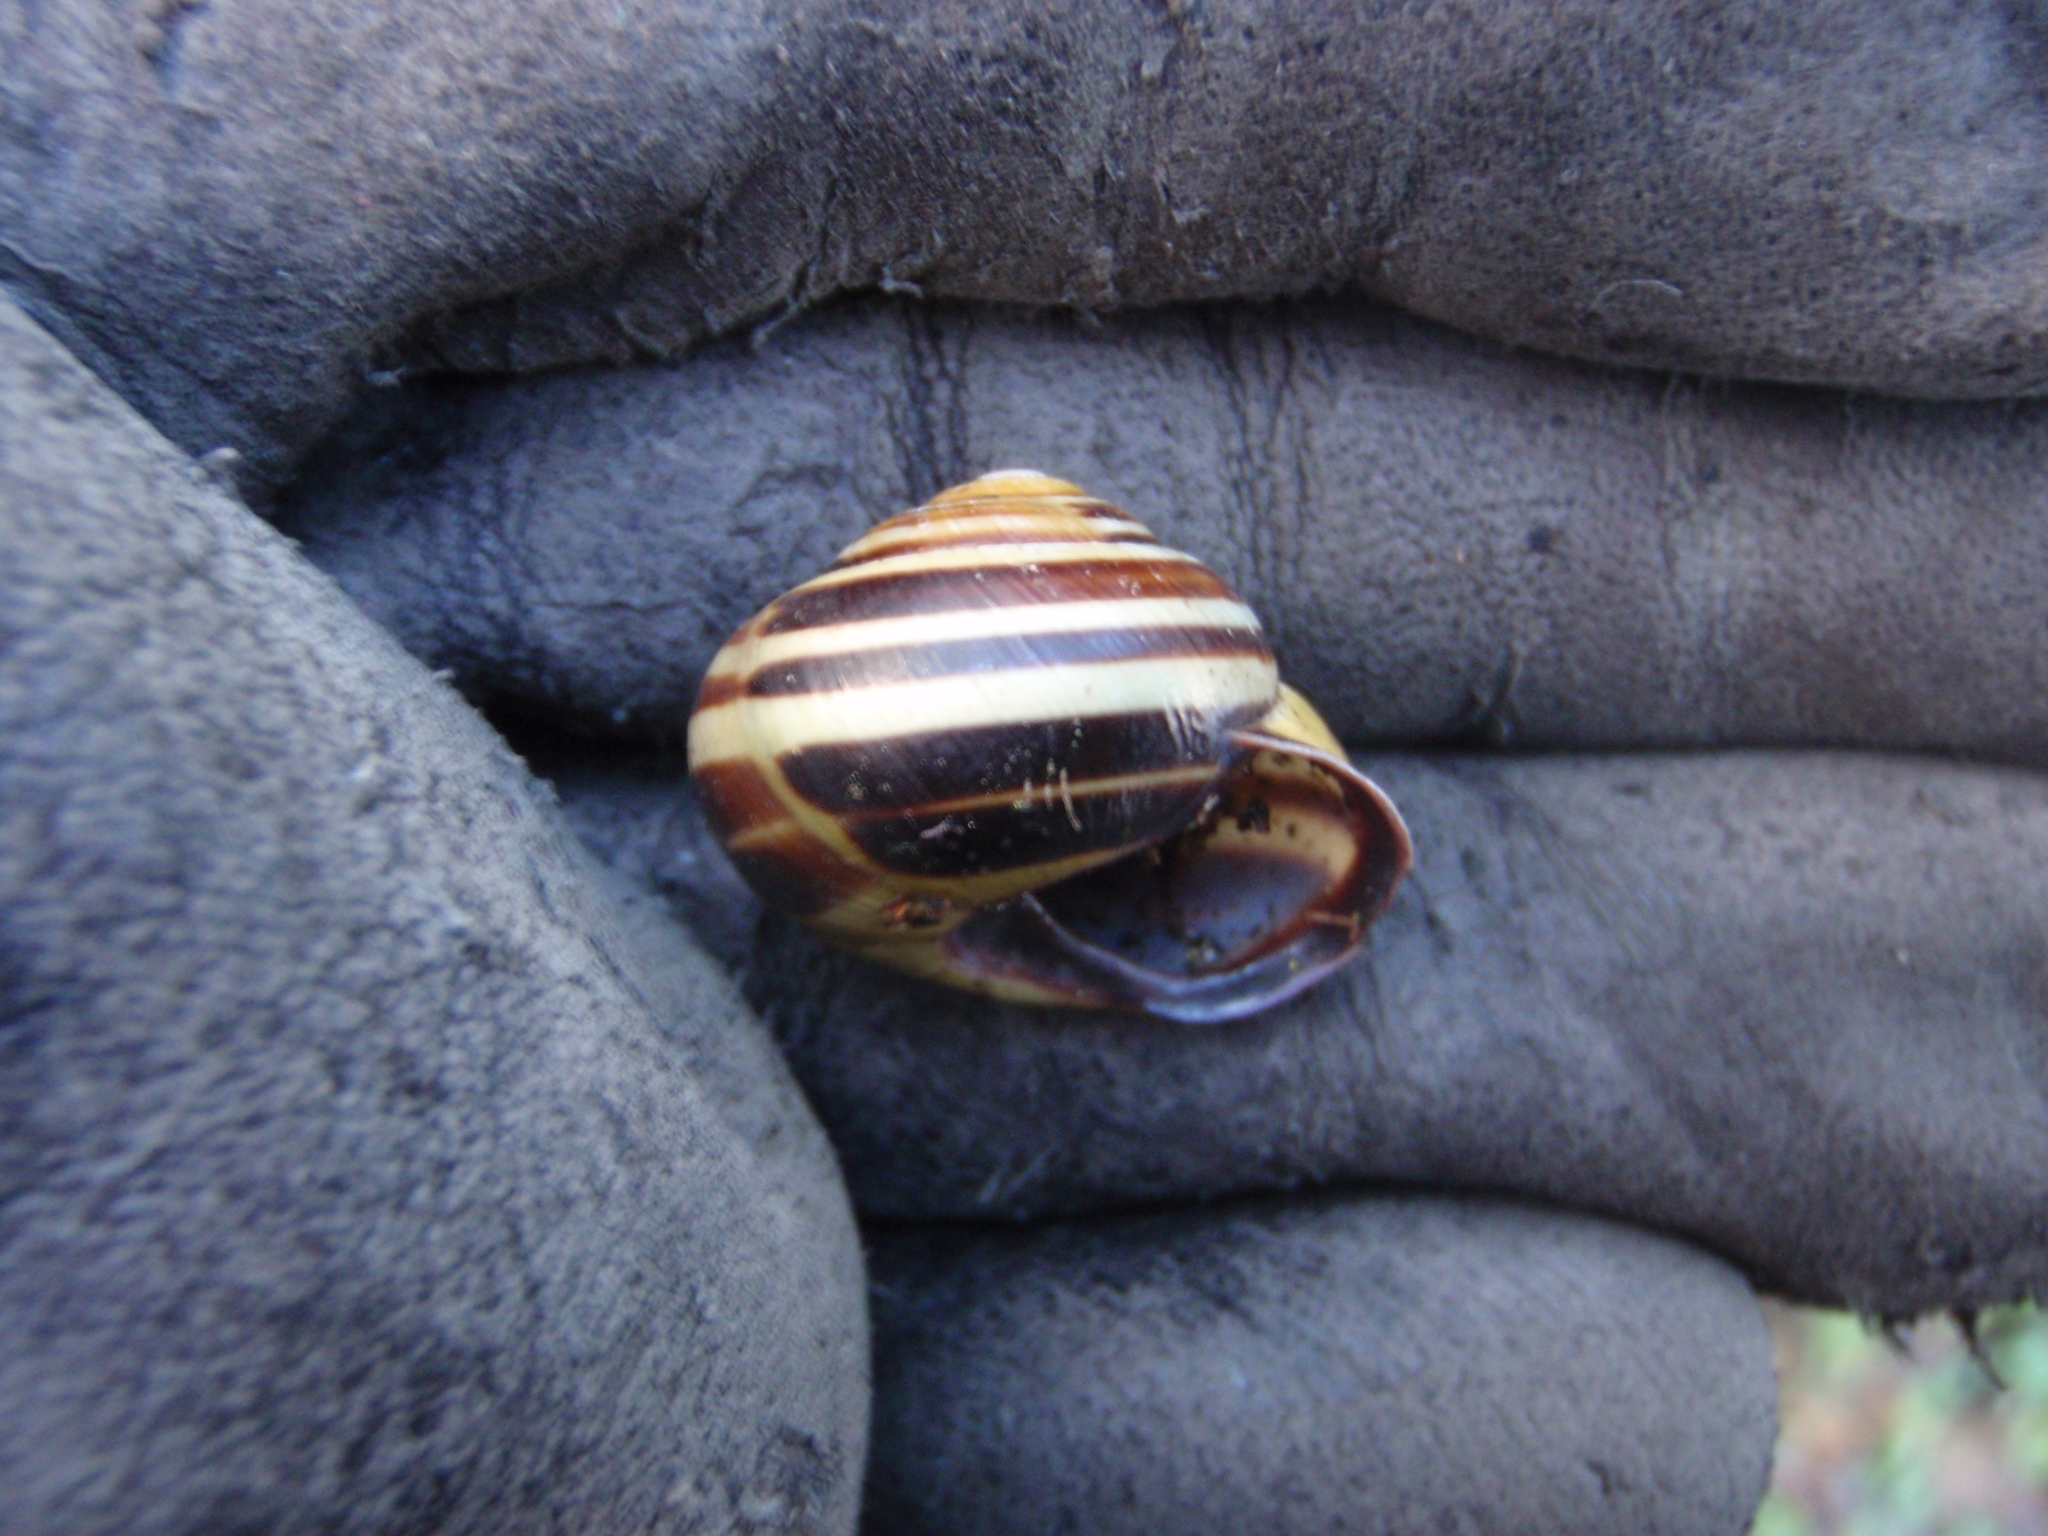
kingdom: Animalia
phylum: Mollusca
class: Gastropoda
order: Stylommatophora
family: Helicidae
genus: Cepaea
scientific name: Cepaea nemoralis
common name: Grovesnail
